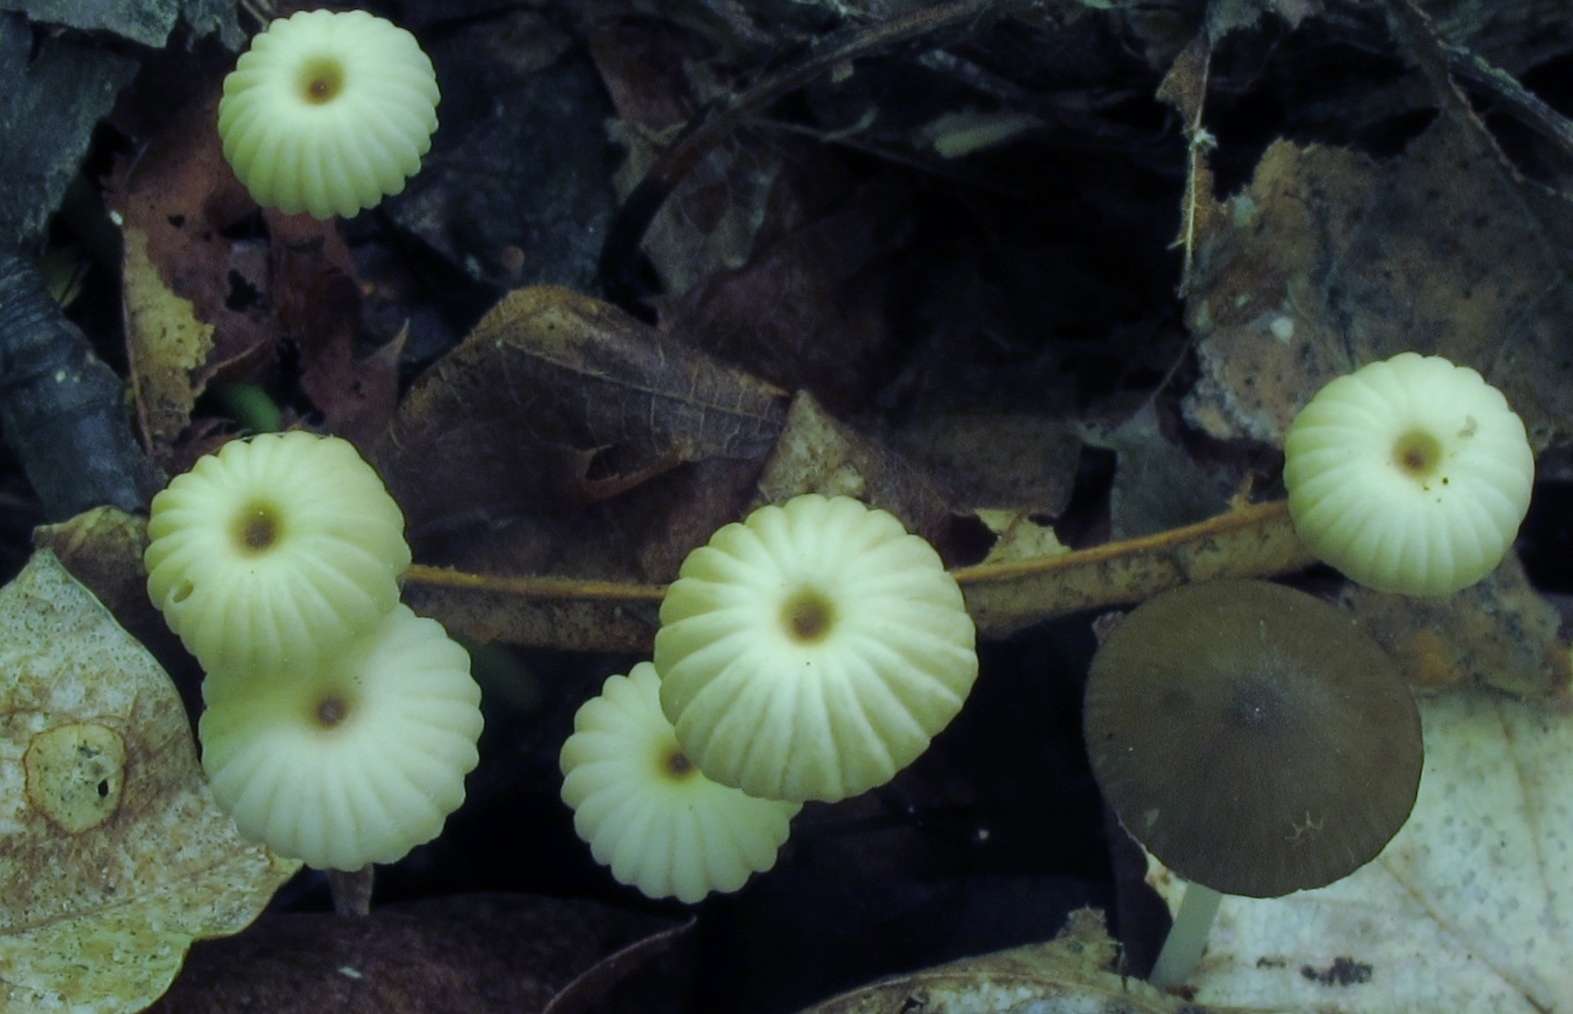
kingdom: Fungi
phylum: Basidiomycota
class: Agaricomycetes
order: Agaricales
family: Marasmiaceae
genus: Marasmius
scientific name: Marasmius rotula
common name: Collared parachute
